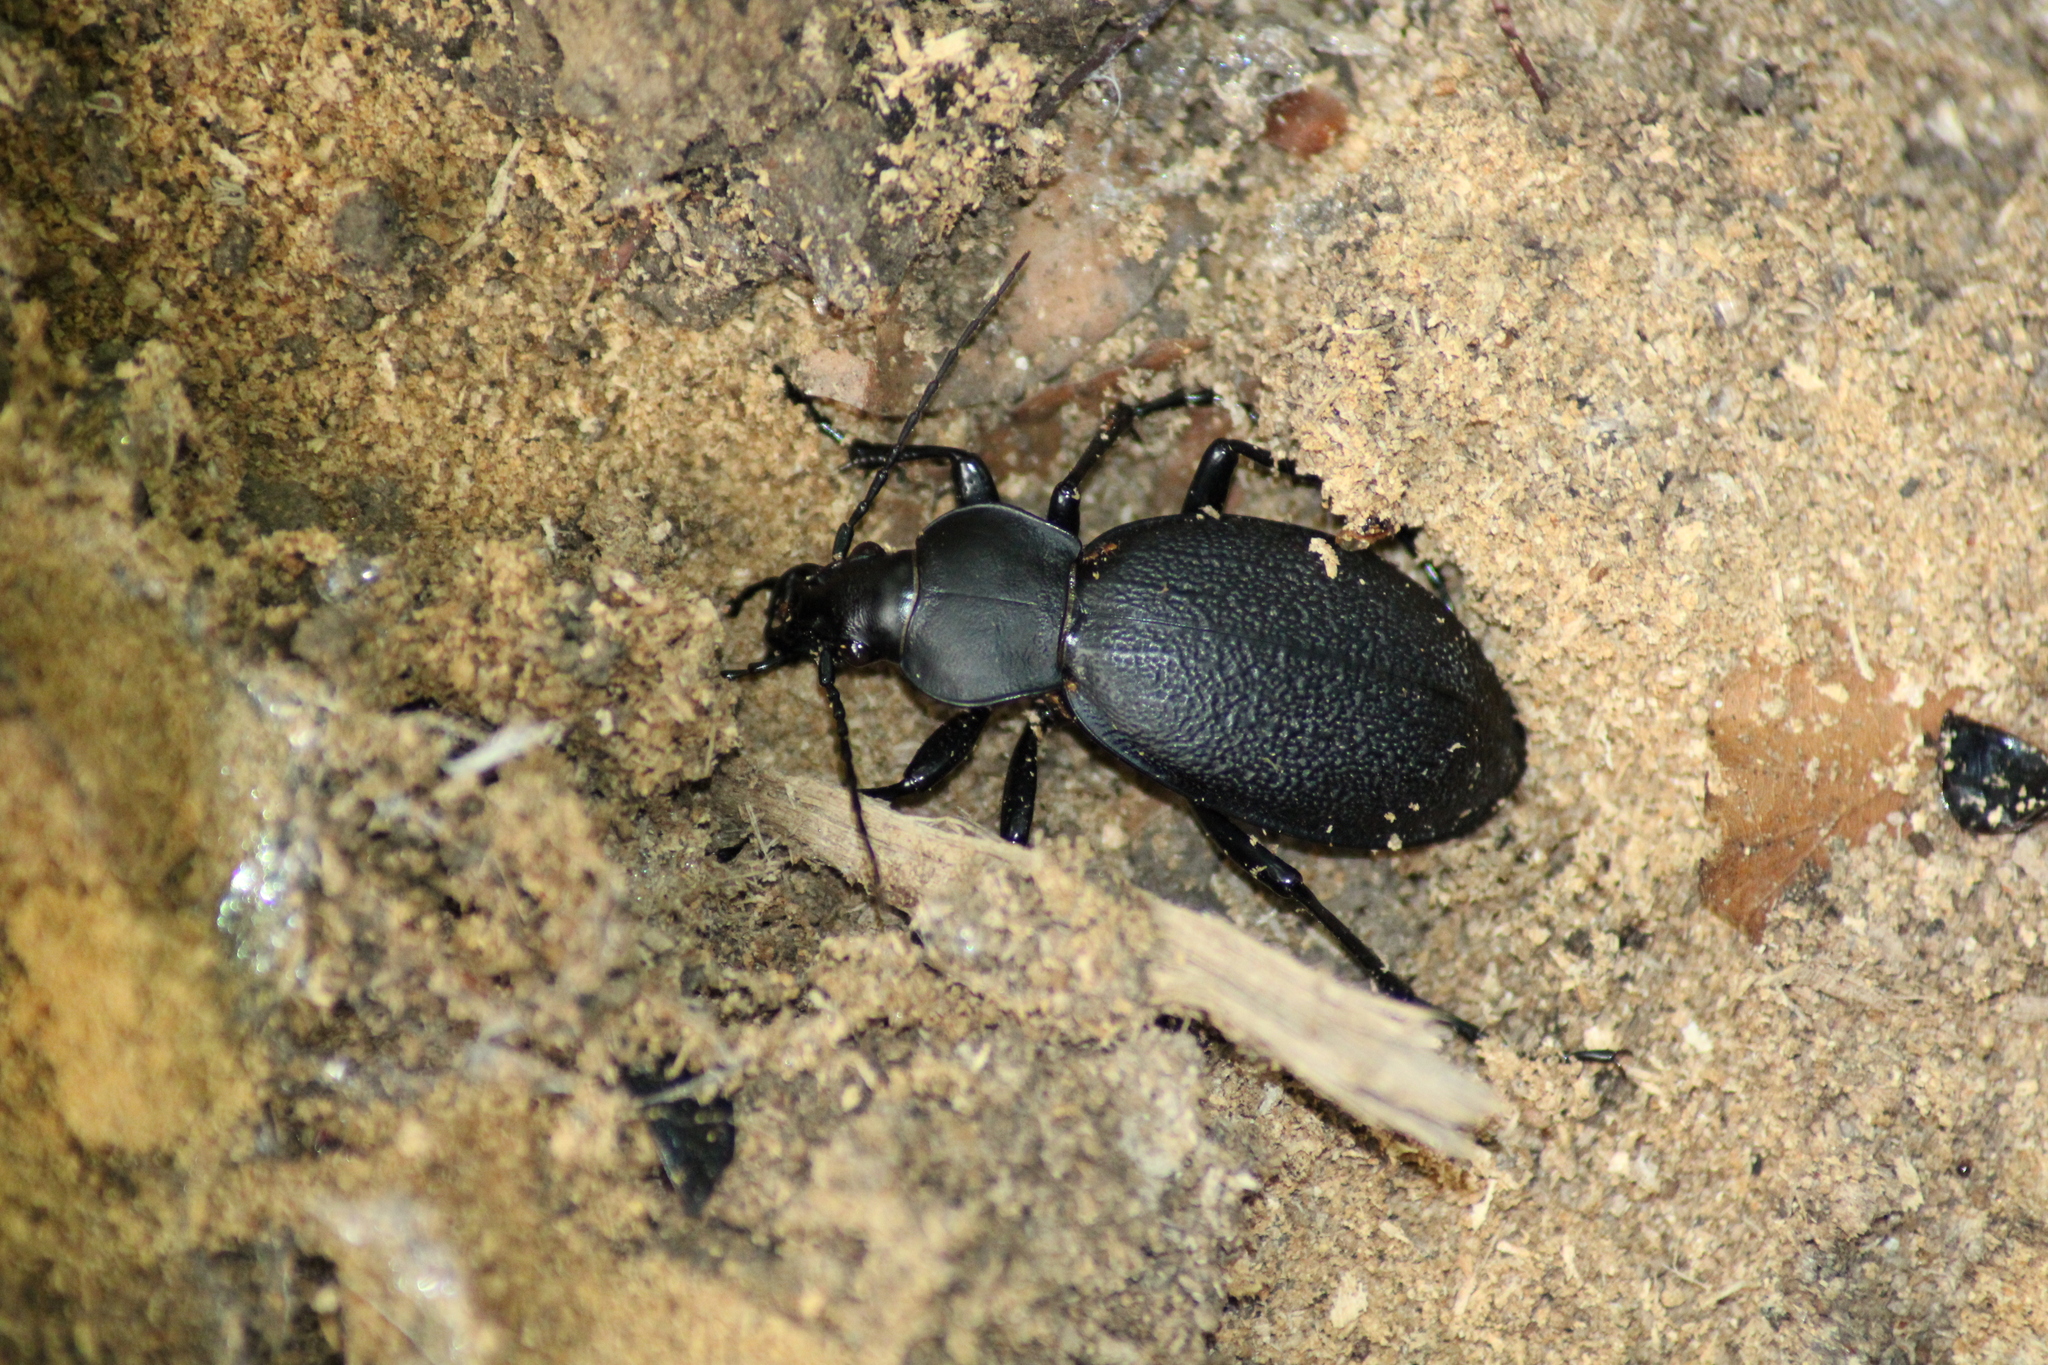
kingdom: Animalia
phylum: Arthropoda
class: Insecta
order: Coleoptera
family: Carabidae
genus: Carabus
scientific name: Carabus coriaceus
